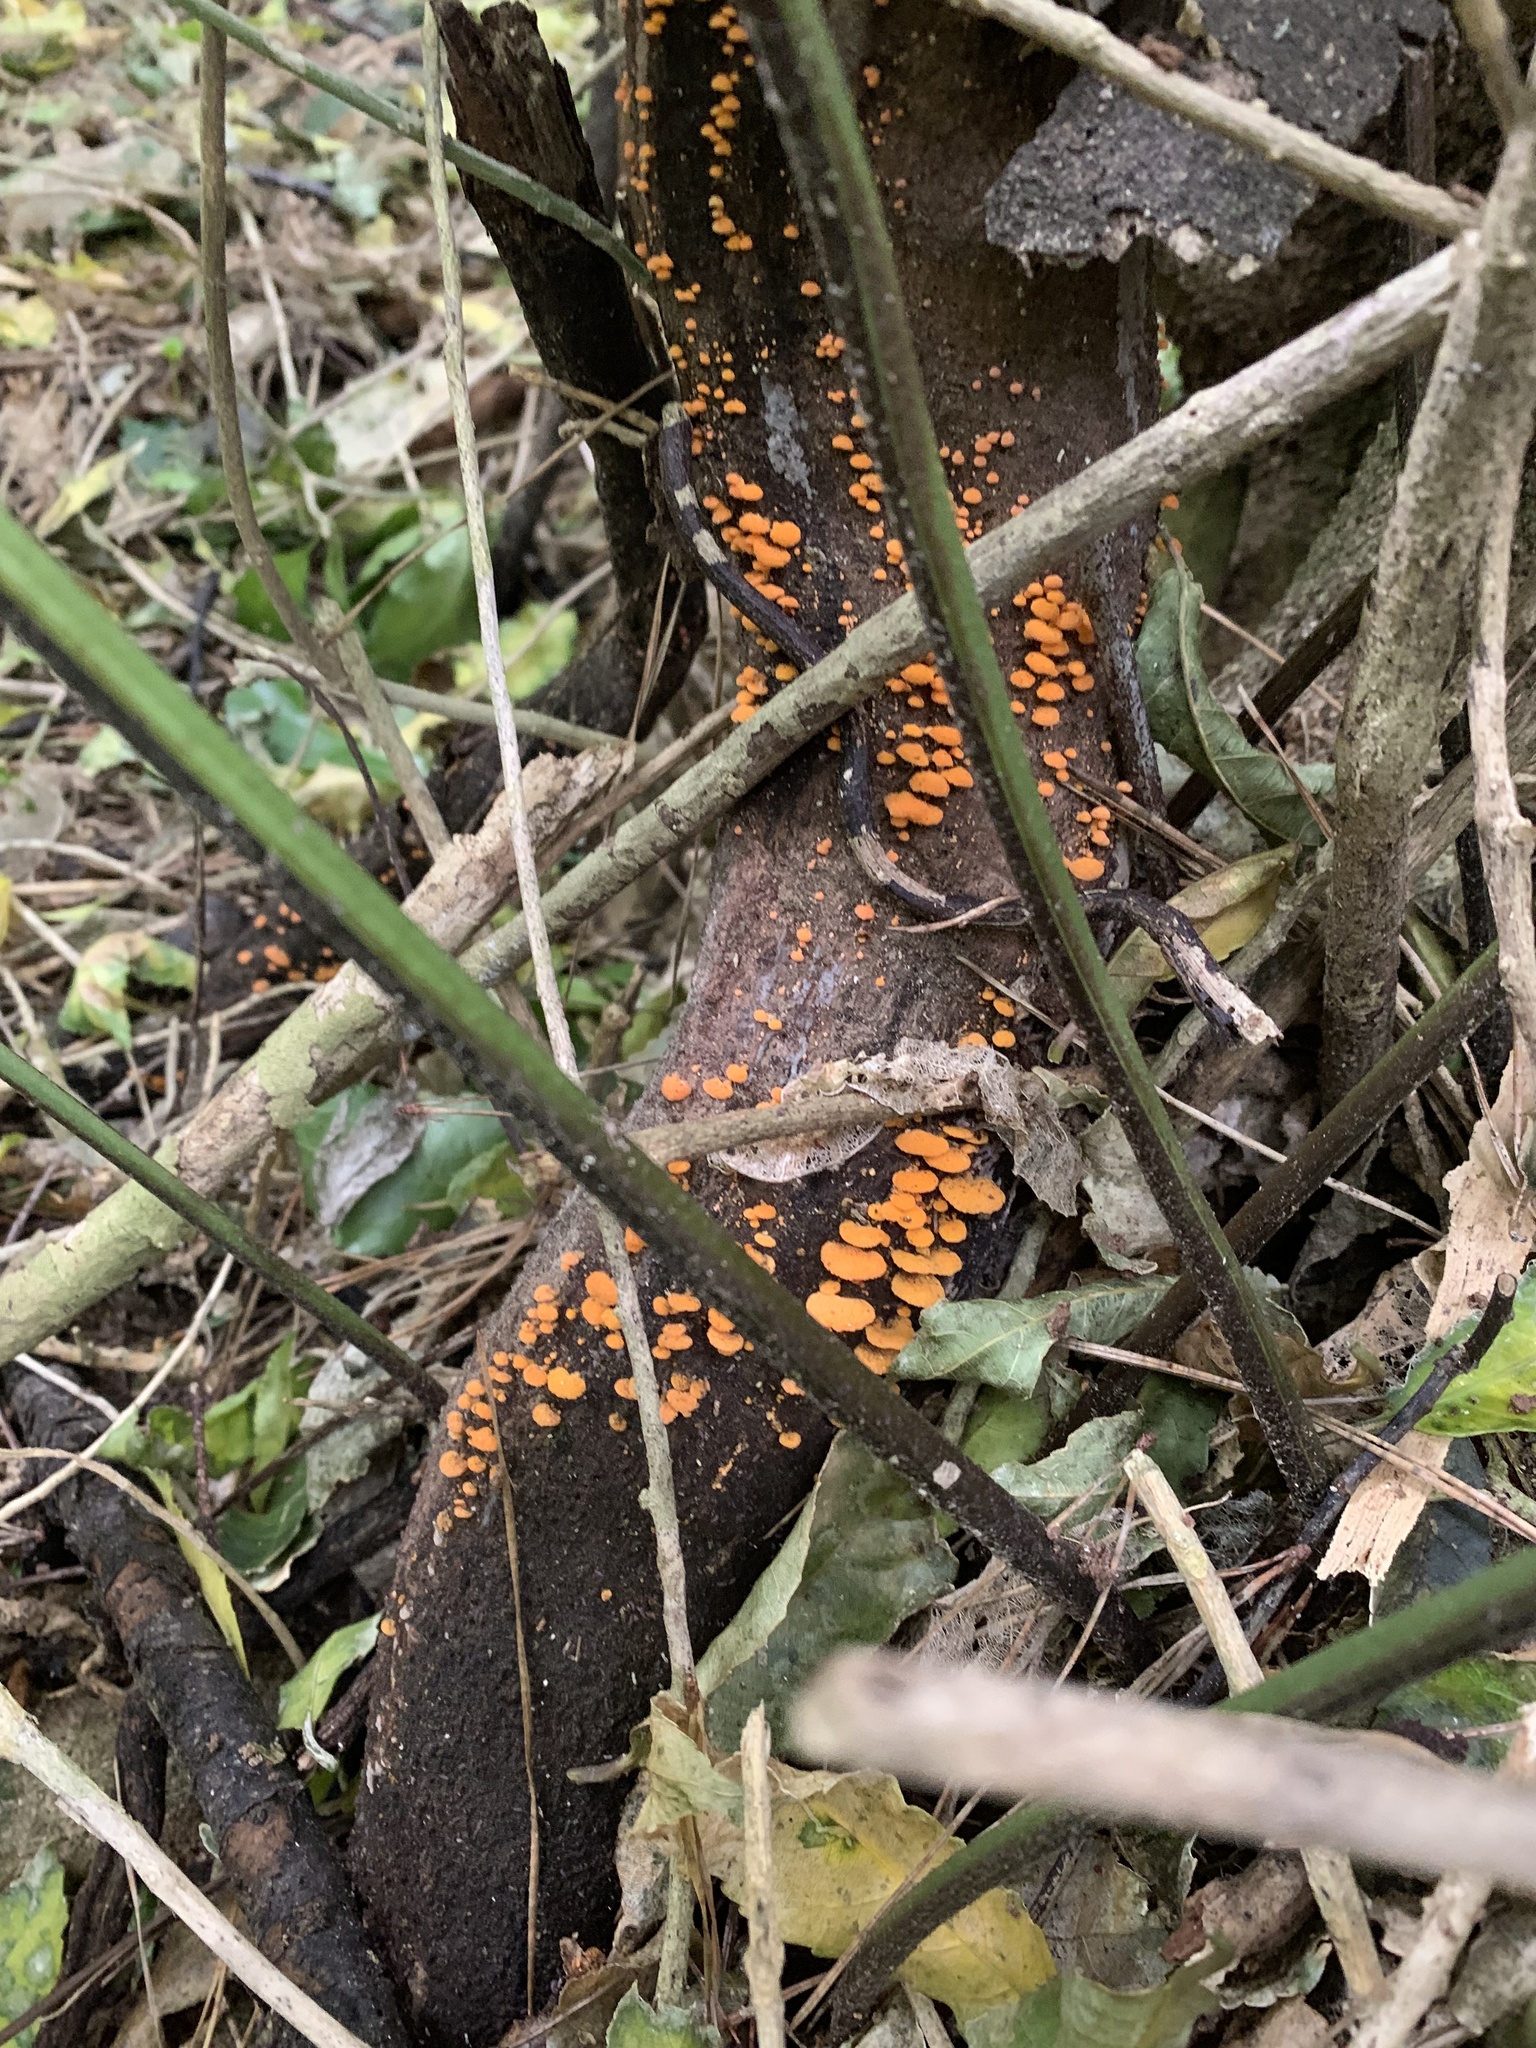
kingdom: Fungi
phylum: Basidiomycota
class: Agaricomycetes
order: Agaricales
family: Mycenaceae
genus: Favolaschia
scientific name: Favolaschia claudopus
